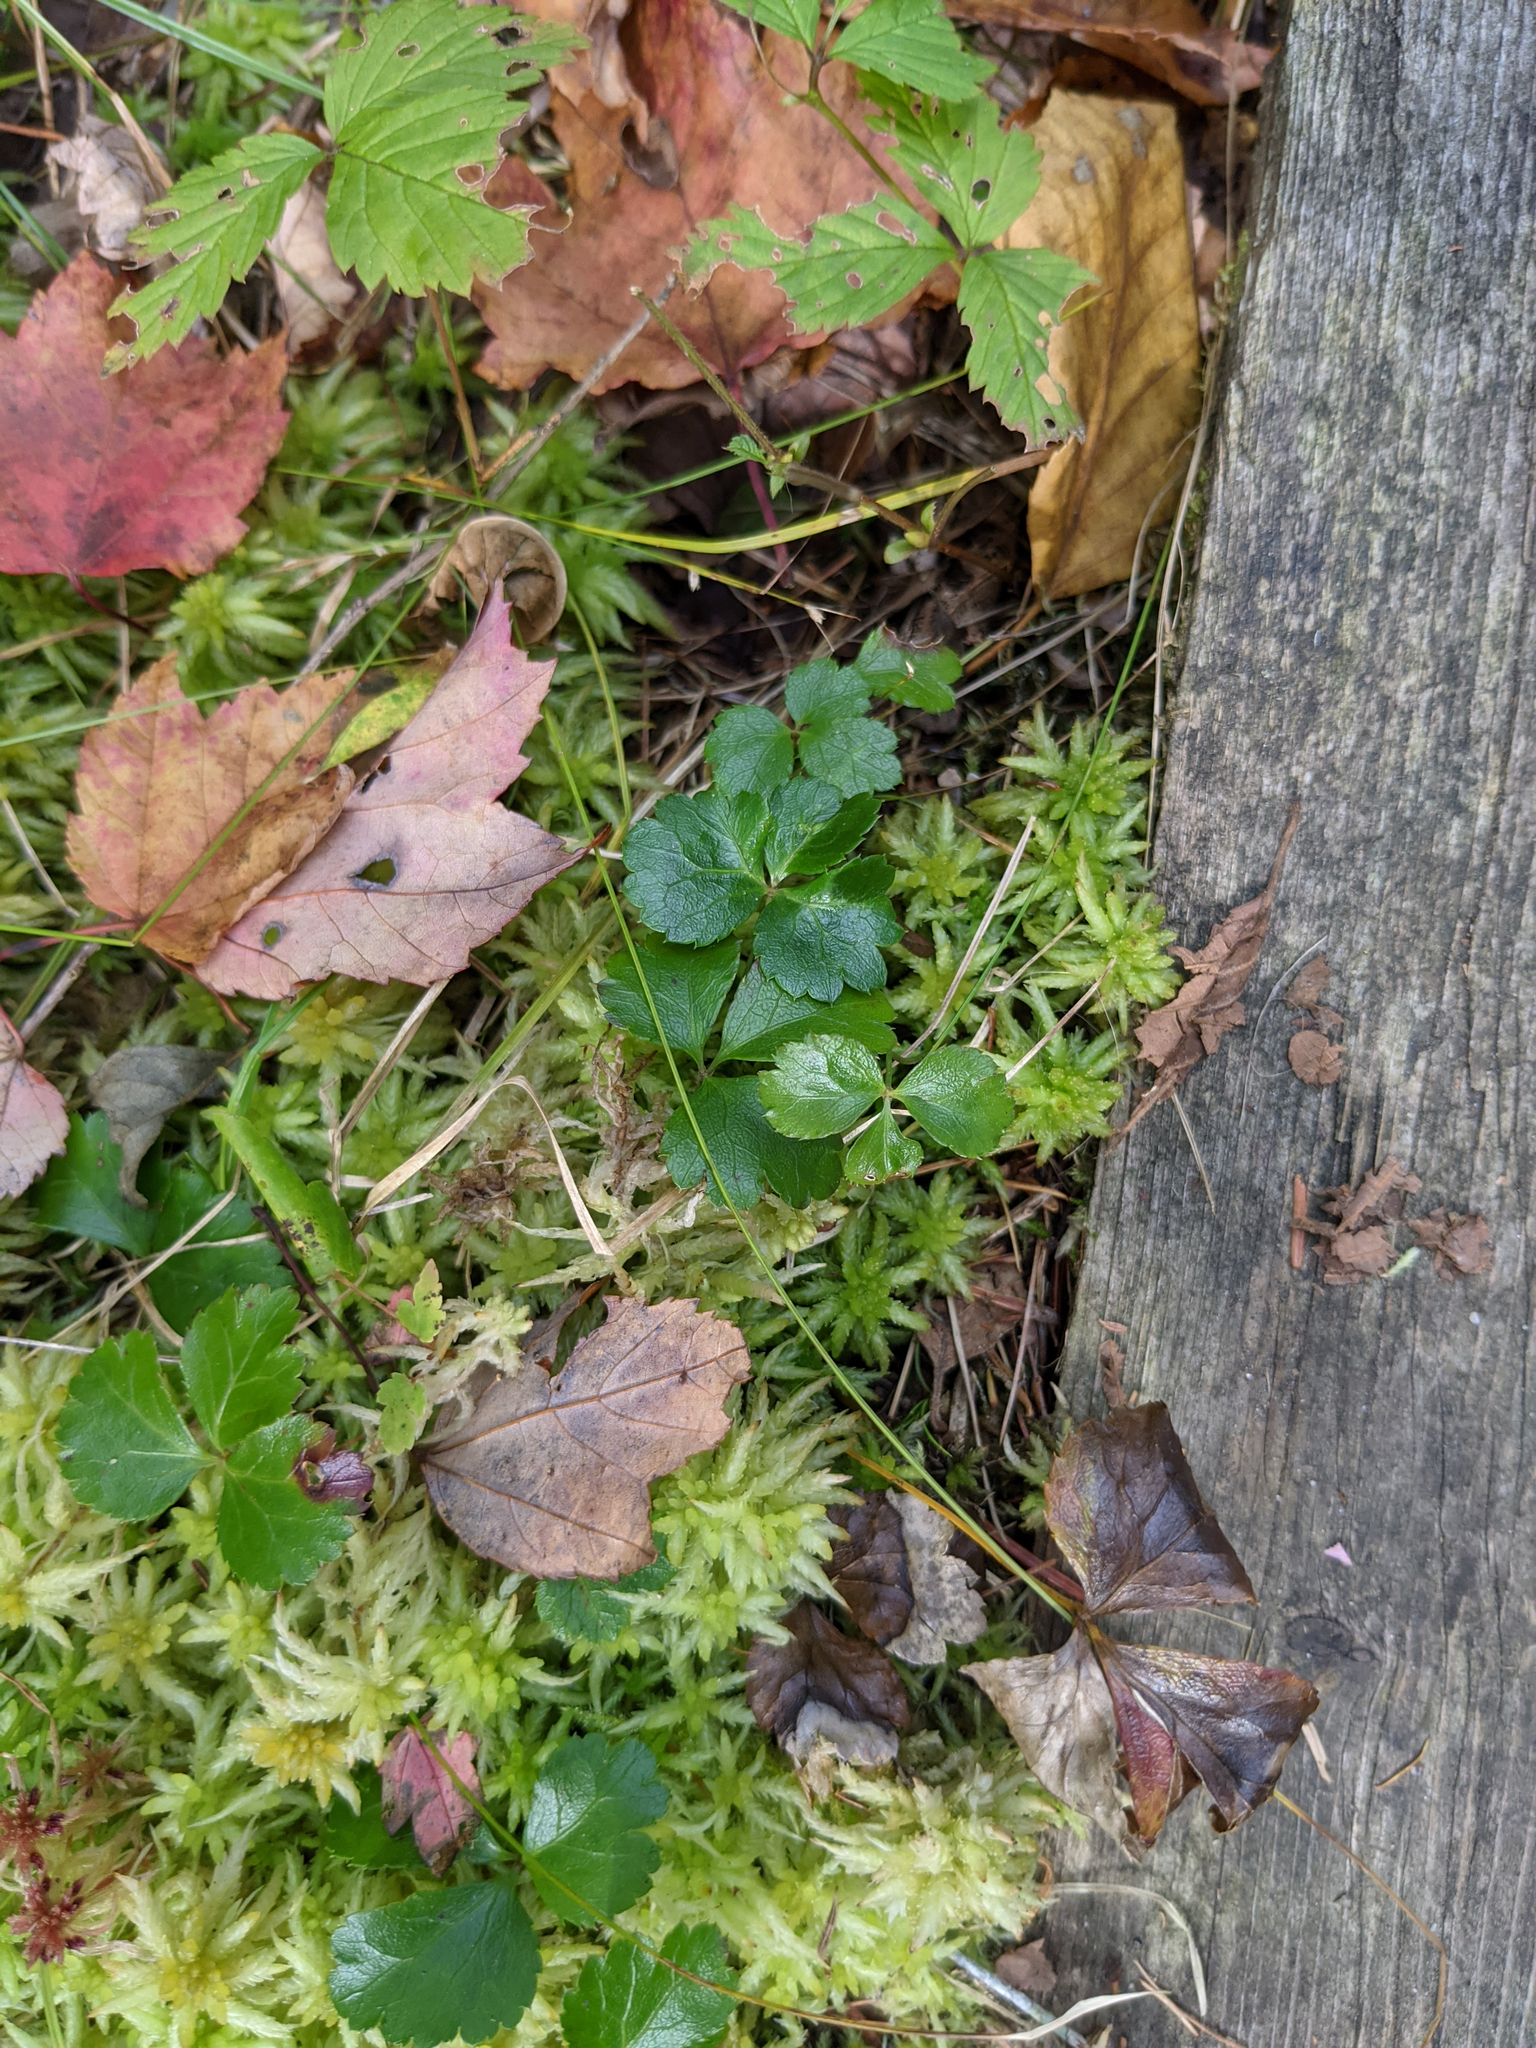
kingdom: Plantae
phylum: Tracheophyta
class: Magnoliopsida
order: Ranunculales
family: Ranunculaceae
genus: Coptis
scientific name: Coptis trifolia
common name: Canker-root
